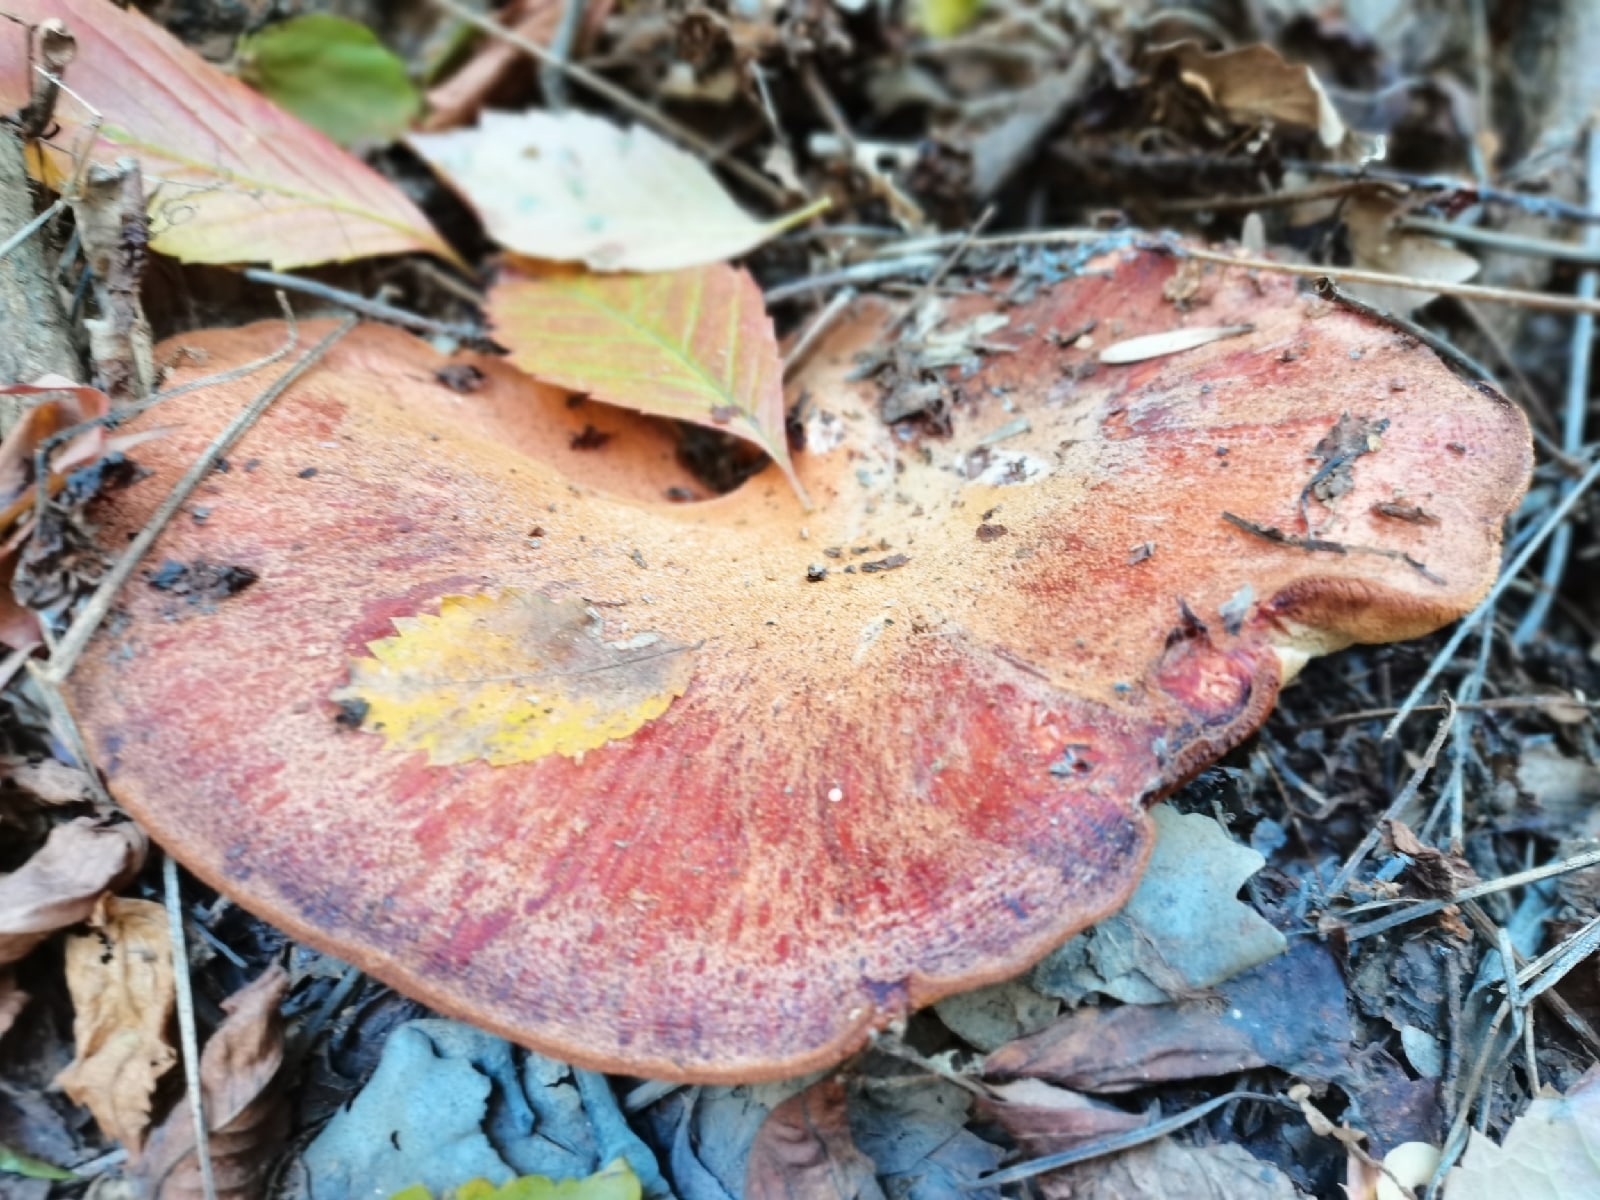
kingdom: Fungi
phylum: Basidiomycota
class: Agaricomycetes
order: Agaricales
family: Fistulinaceae
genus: Fistulina
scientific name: Fistulina hepatica
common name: Beef-steak fungus
